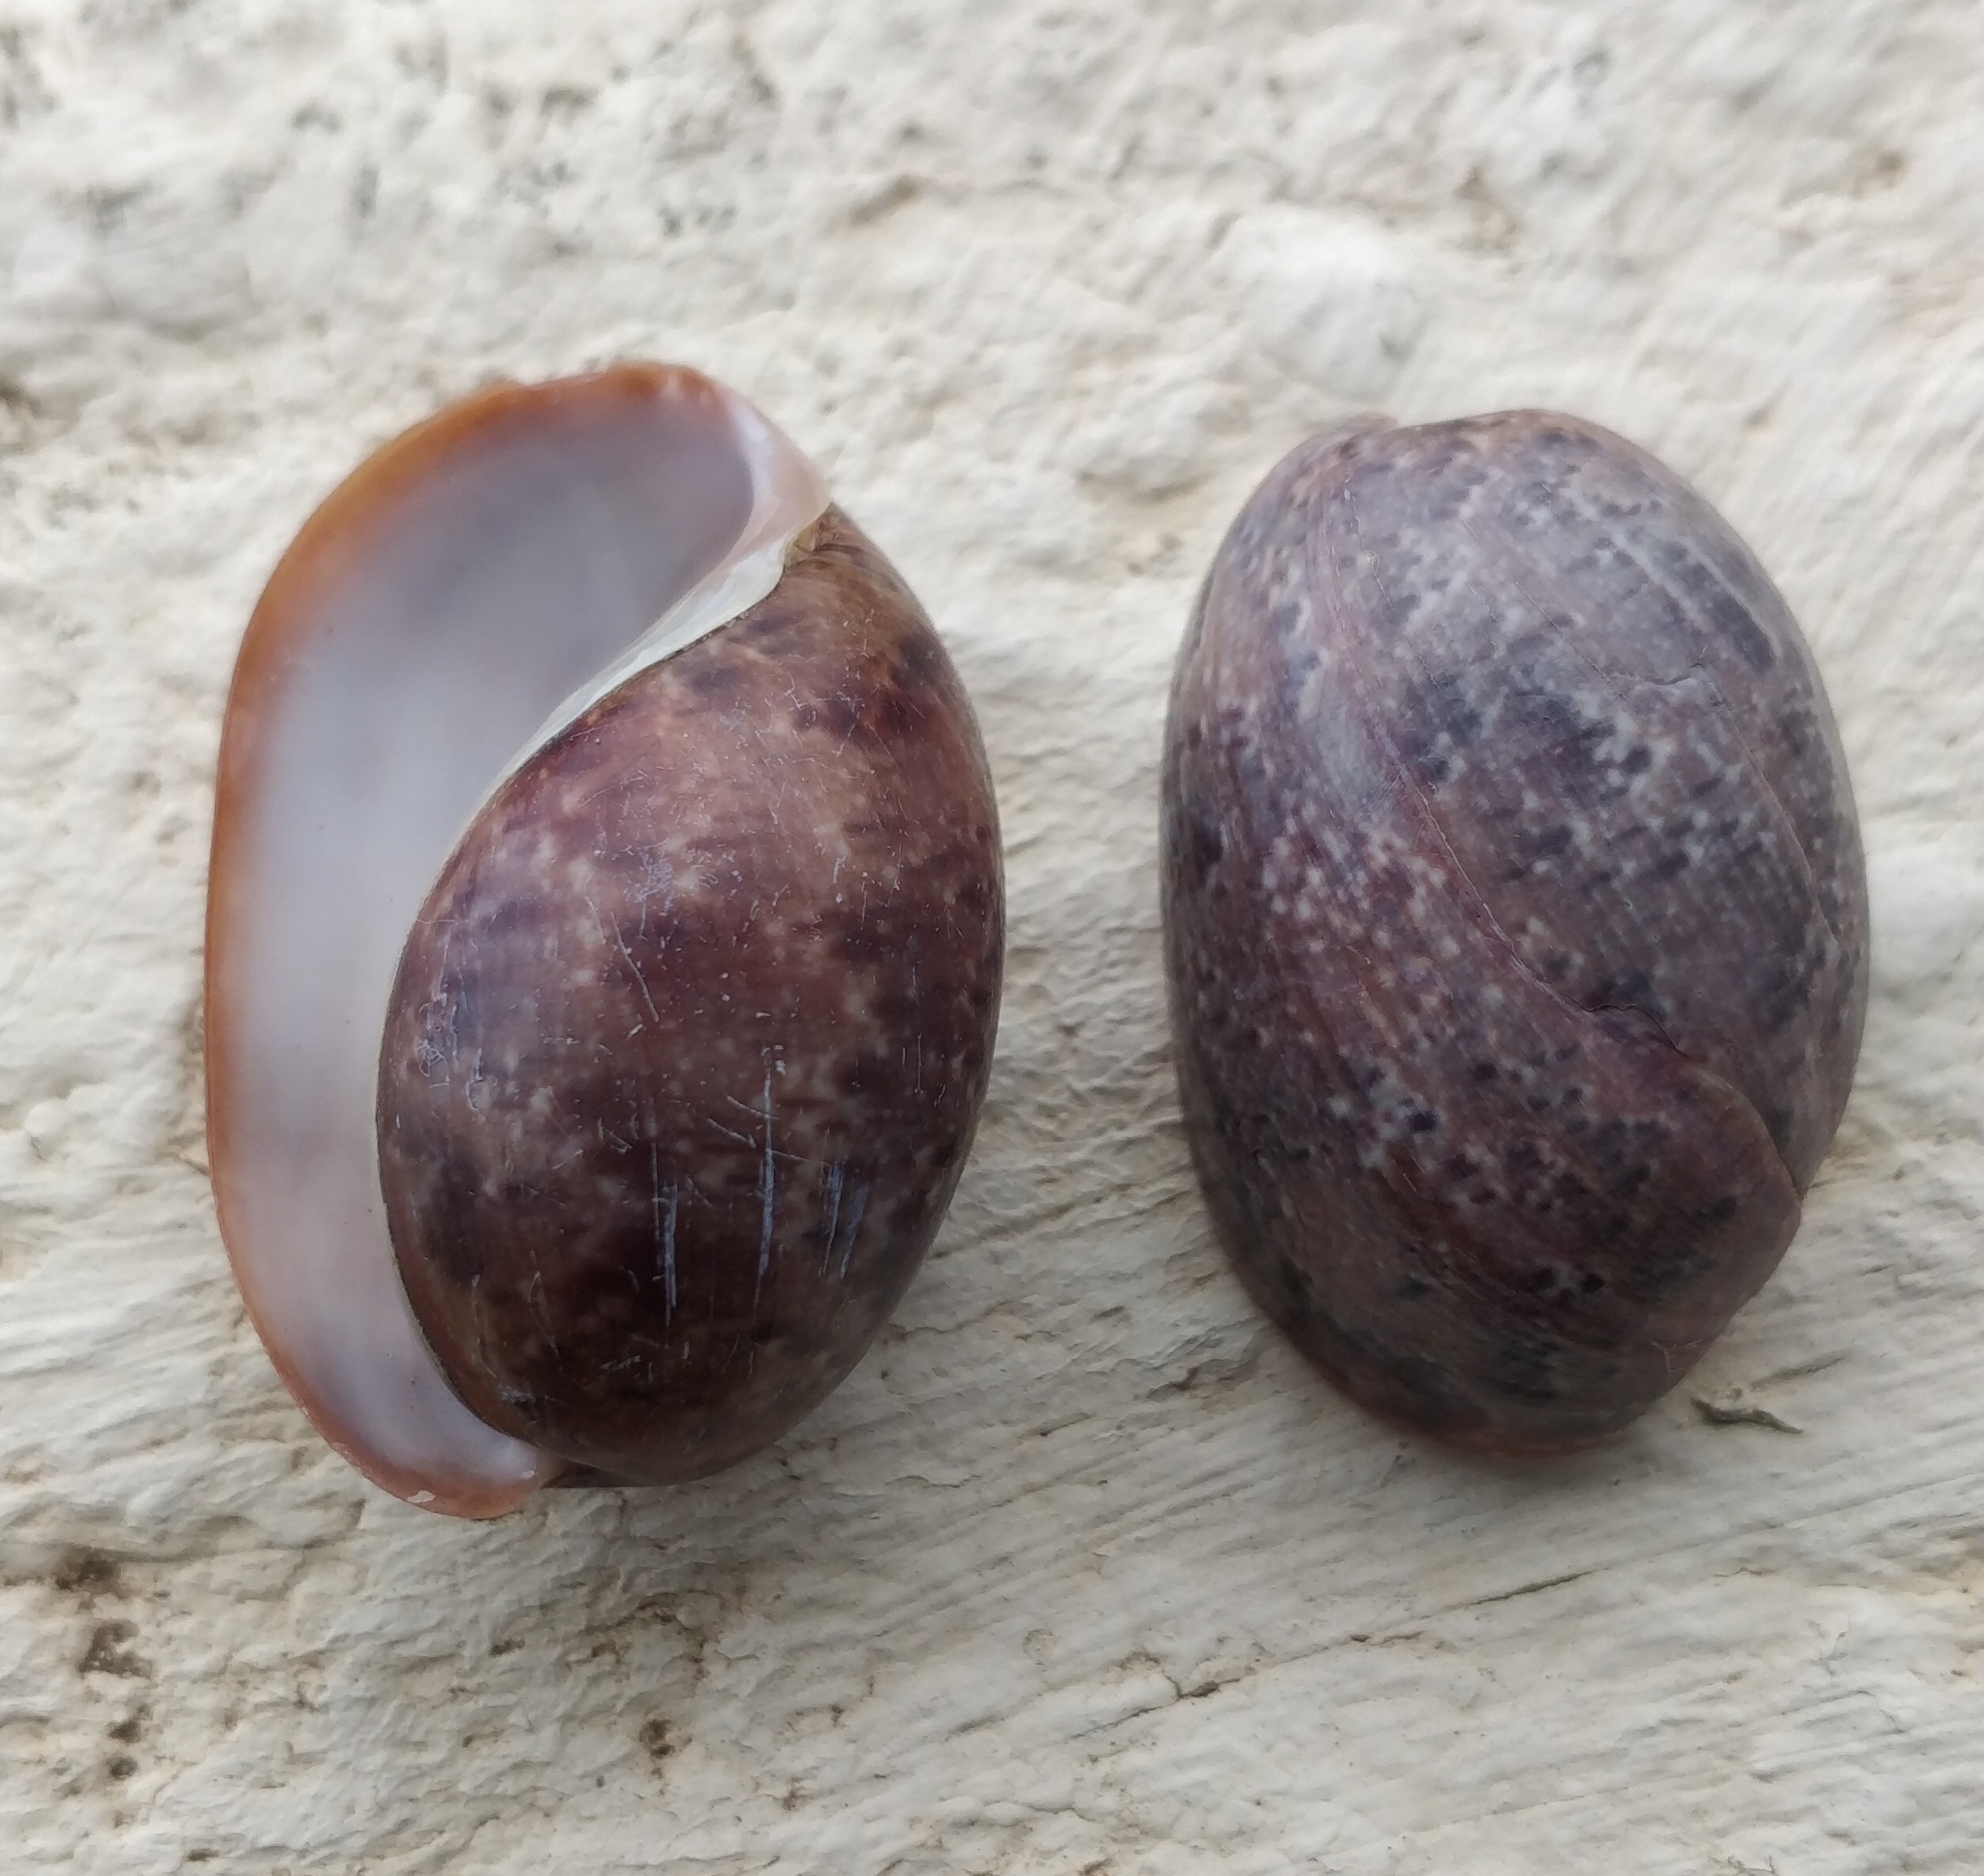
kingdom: Animalia
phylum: Mollusca
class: Gastropoda
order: Cephalaspidea
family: Bullidae
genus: Bulla
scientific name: Bulla mabillei
